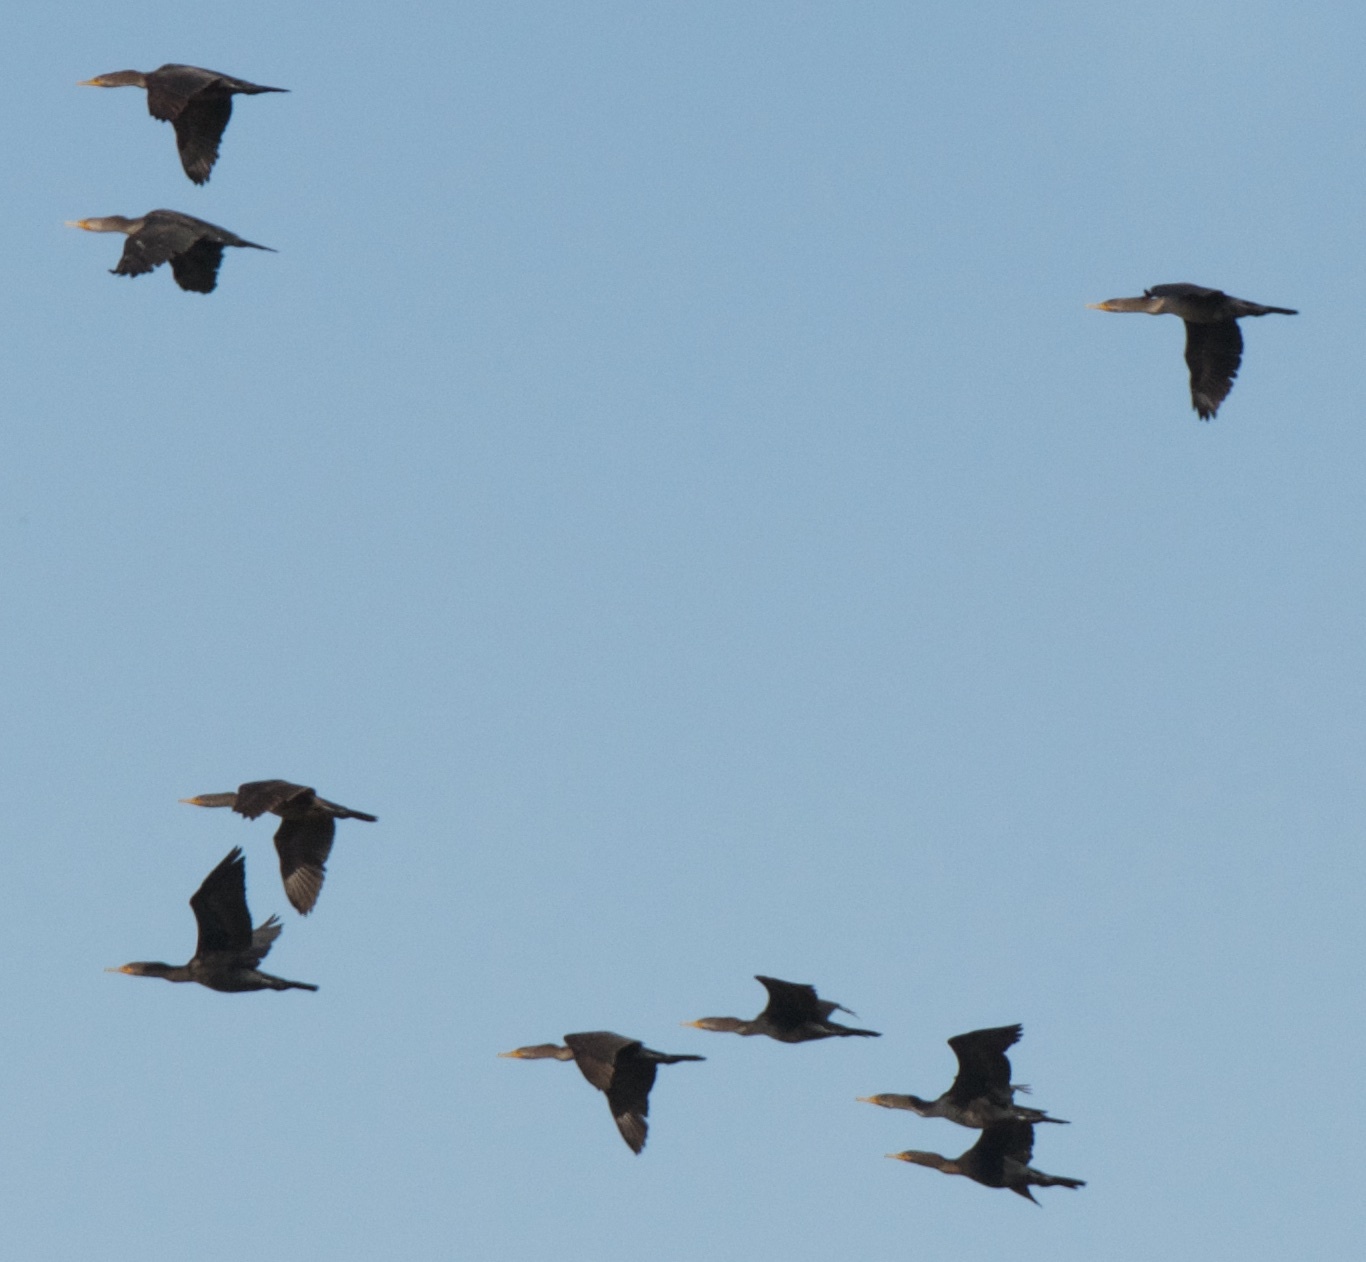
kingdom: Animalia
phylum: Chordata
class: Aves
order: Suliformes
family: Phalacrocoracidae
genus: Phalacrocorax
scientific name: Phalacrocorax auritus
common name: Double-crested cormorant
